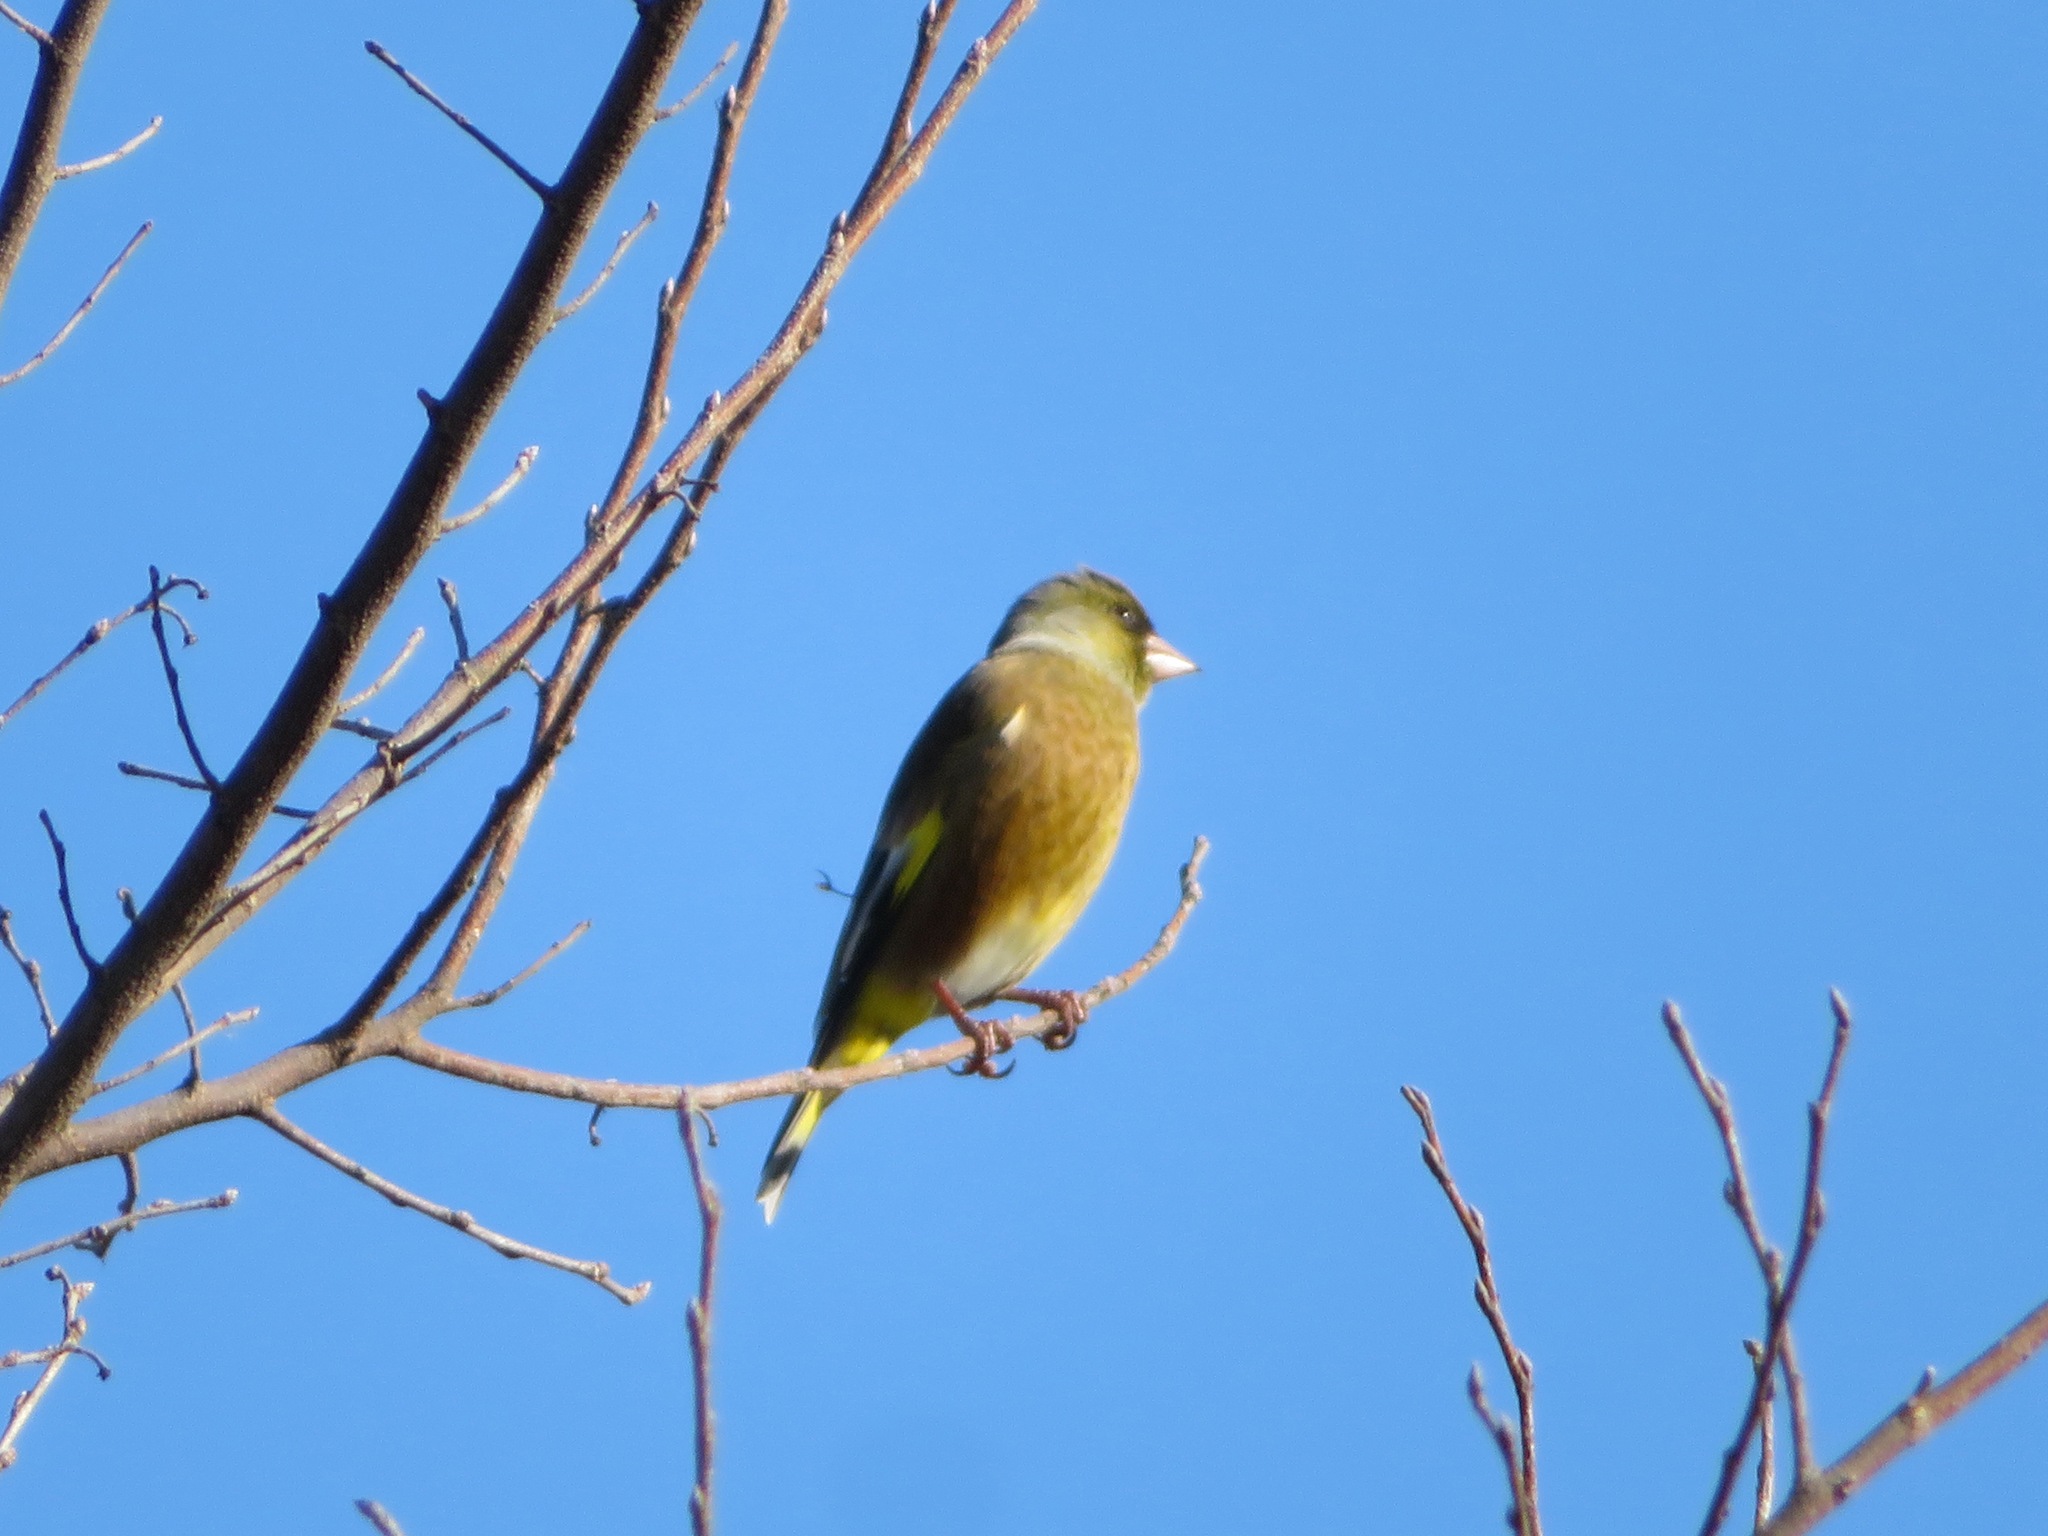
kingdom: Plantae
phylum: Tracheophyta
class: Liliopsida
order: Poales
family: Poaceae
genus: Chloris
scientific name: Chloris sinica
